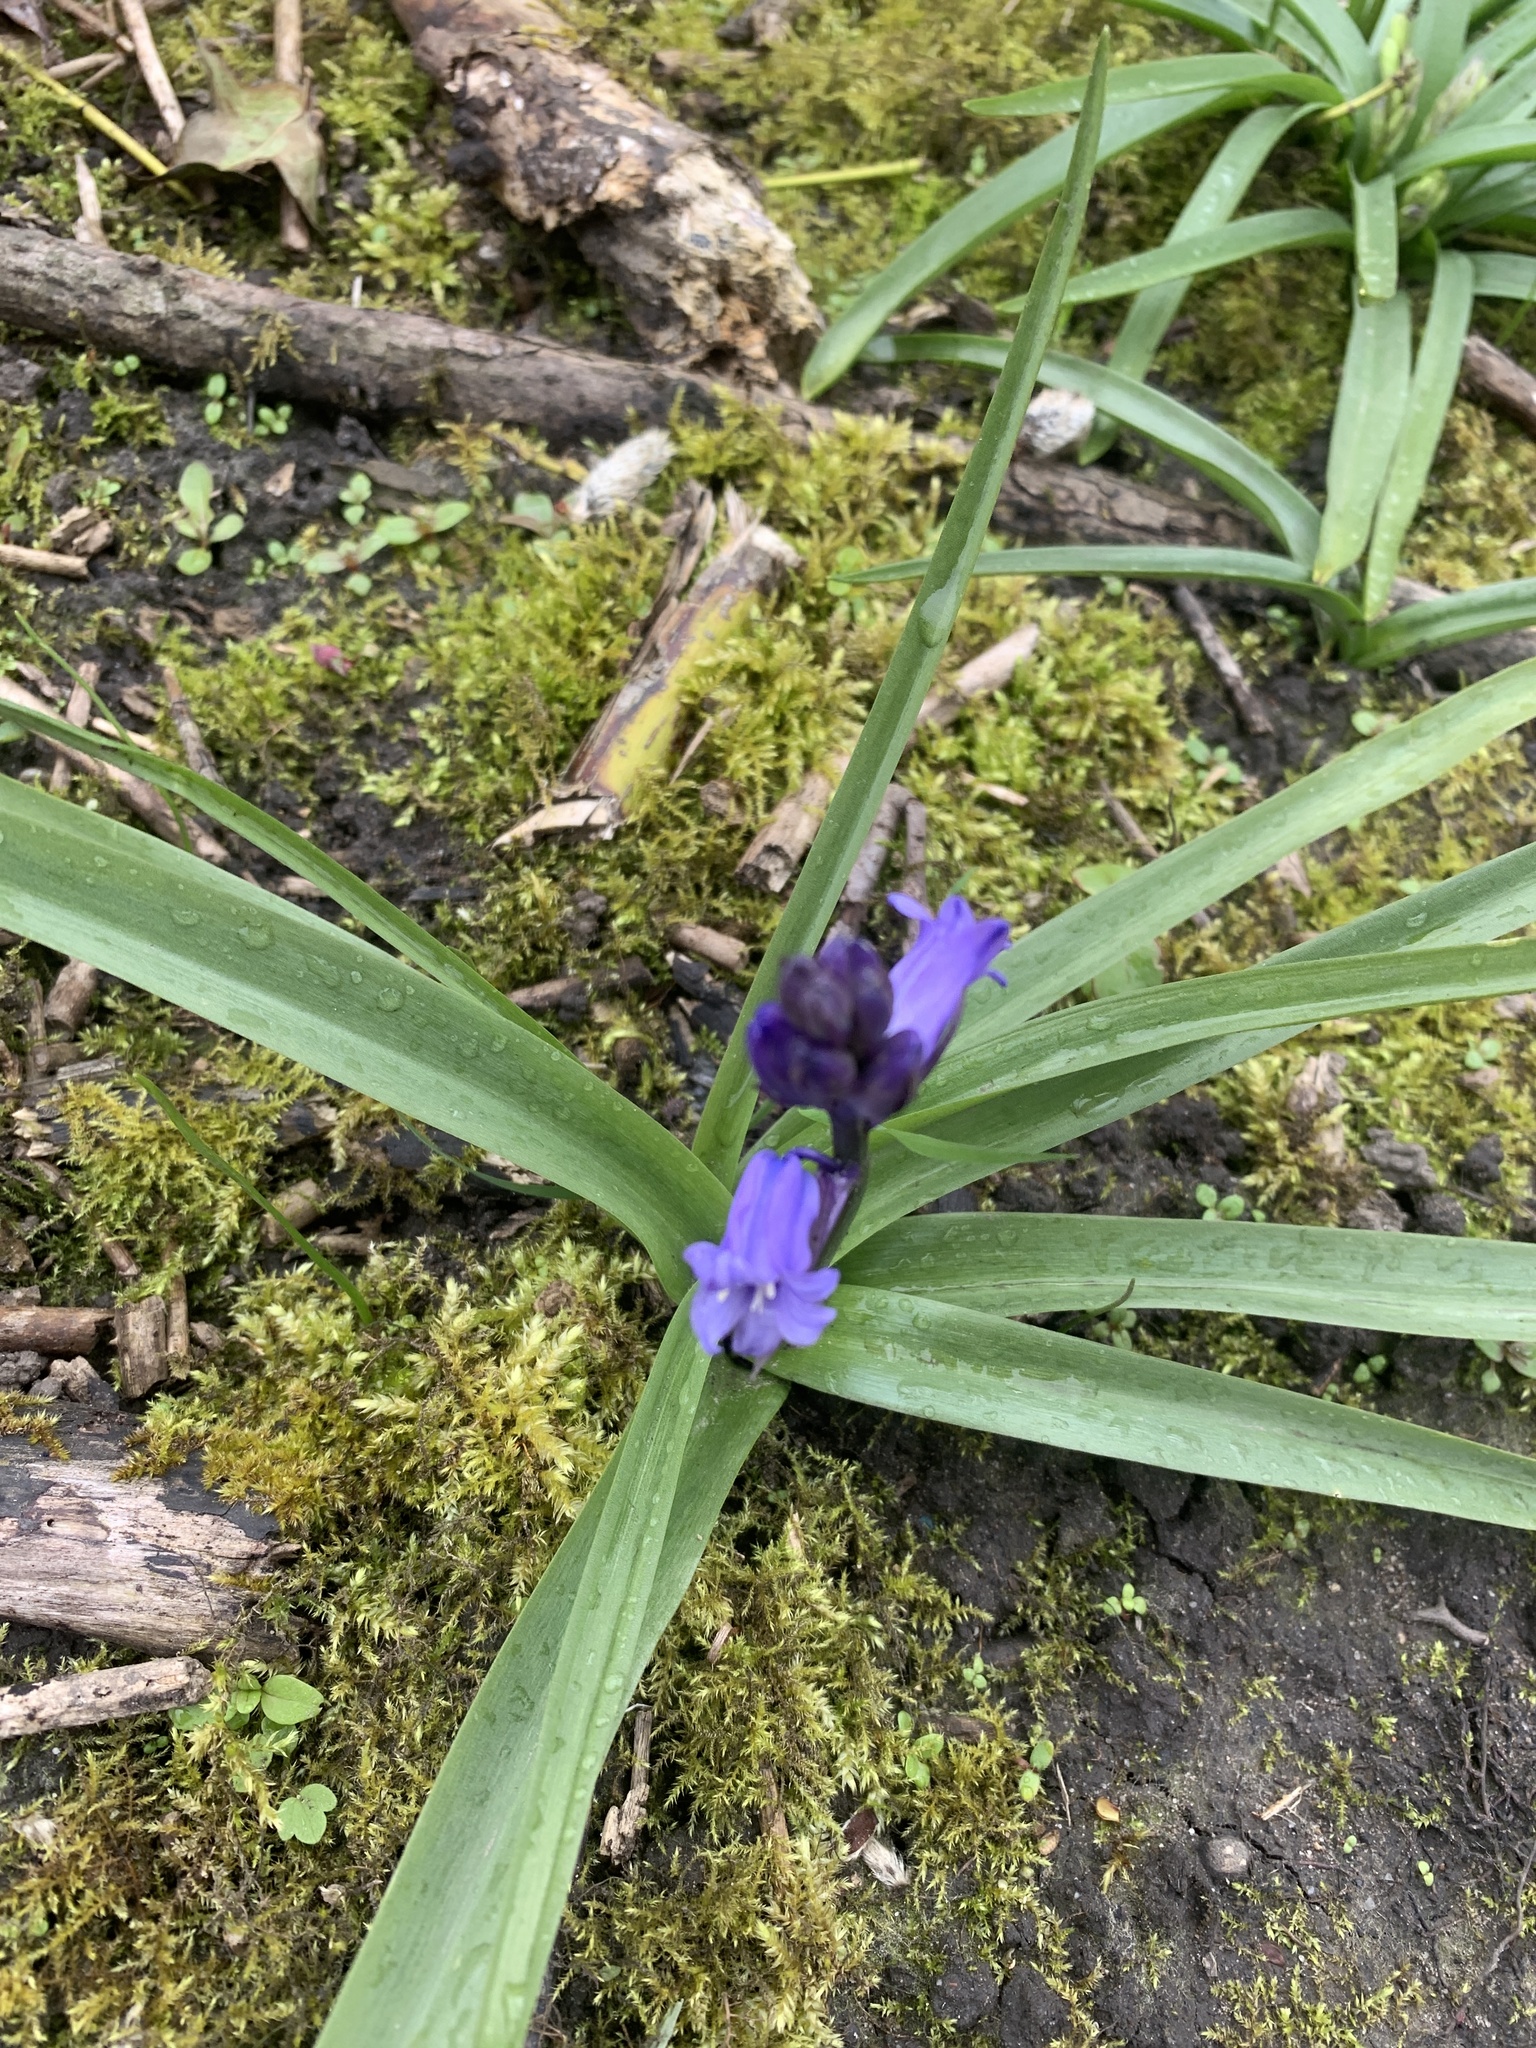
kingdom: Plantae
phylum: Tracheophyta
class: Liliopsida
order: Asparagales
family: Asparagaceae
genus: Hyacinthoides
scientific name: Hyacinthoides non-scripta
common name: Bluebell
